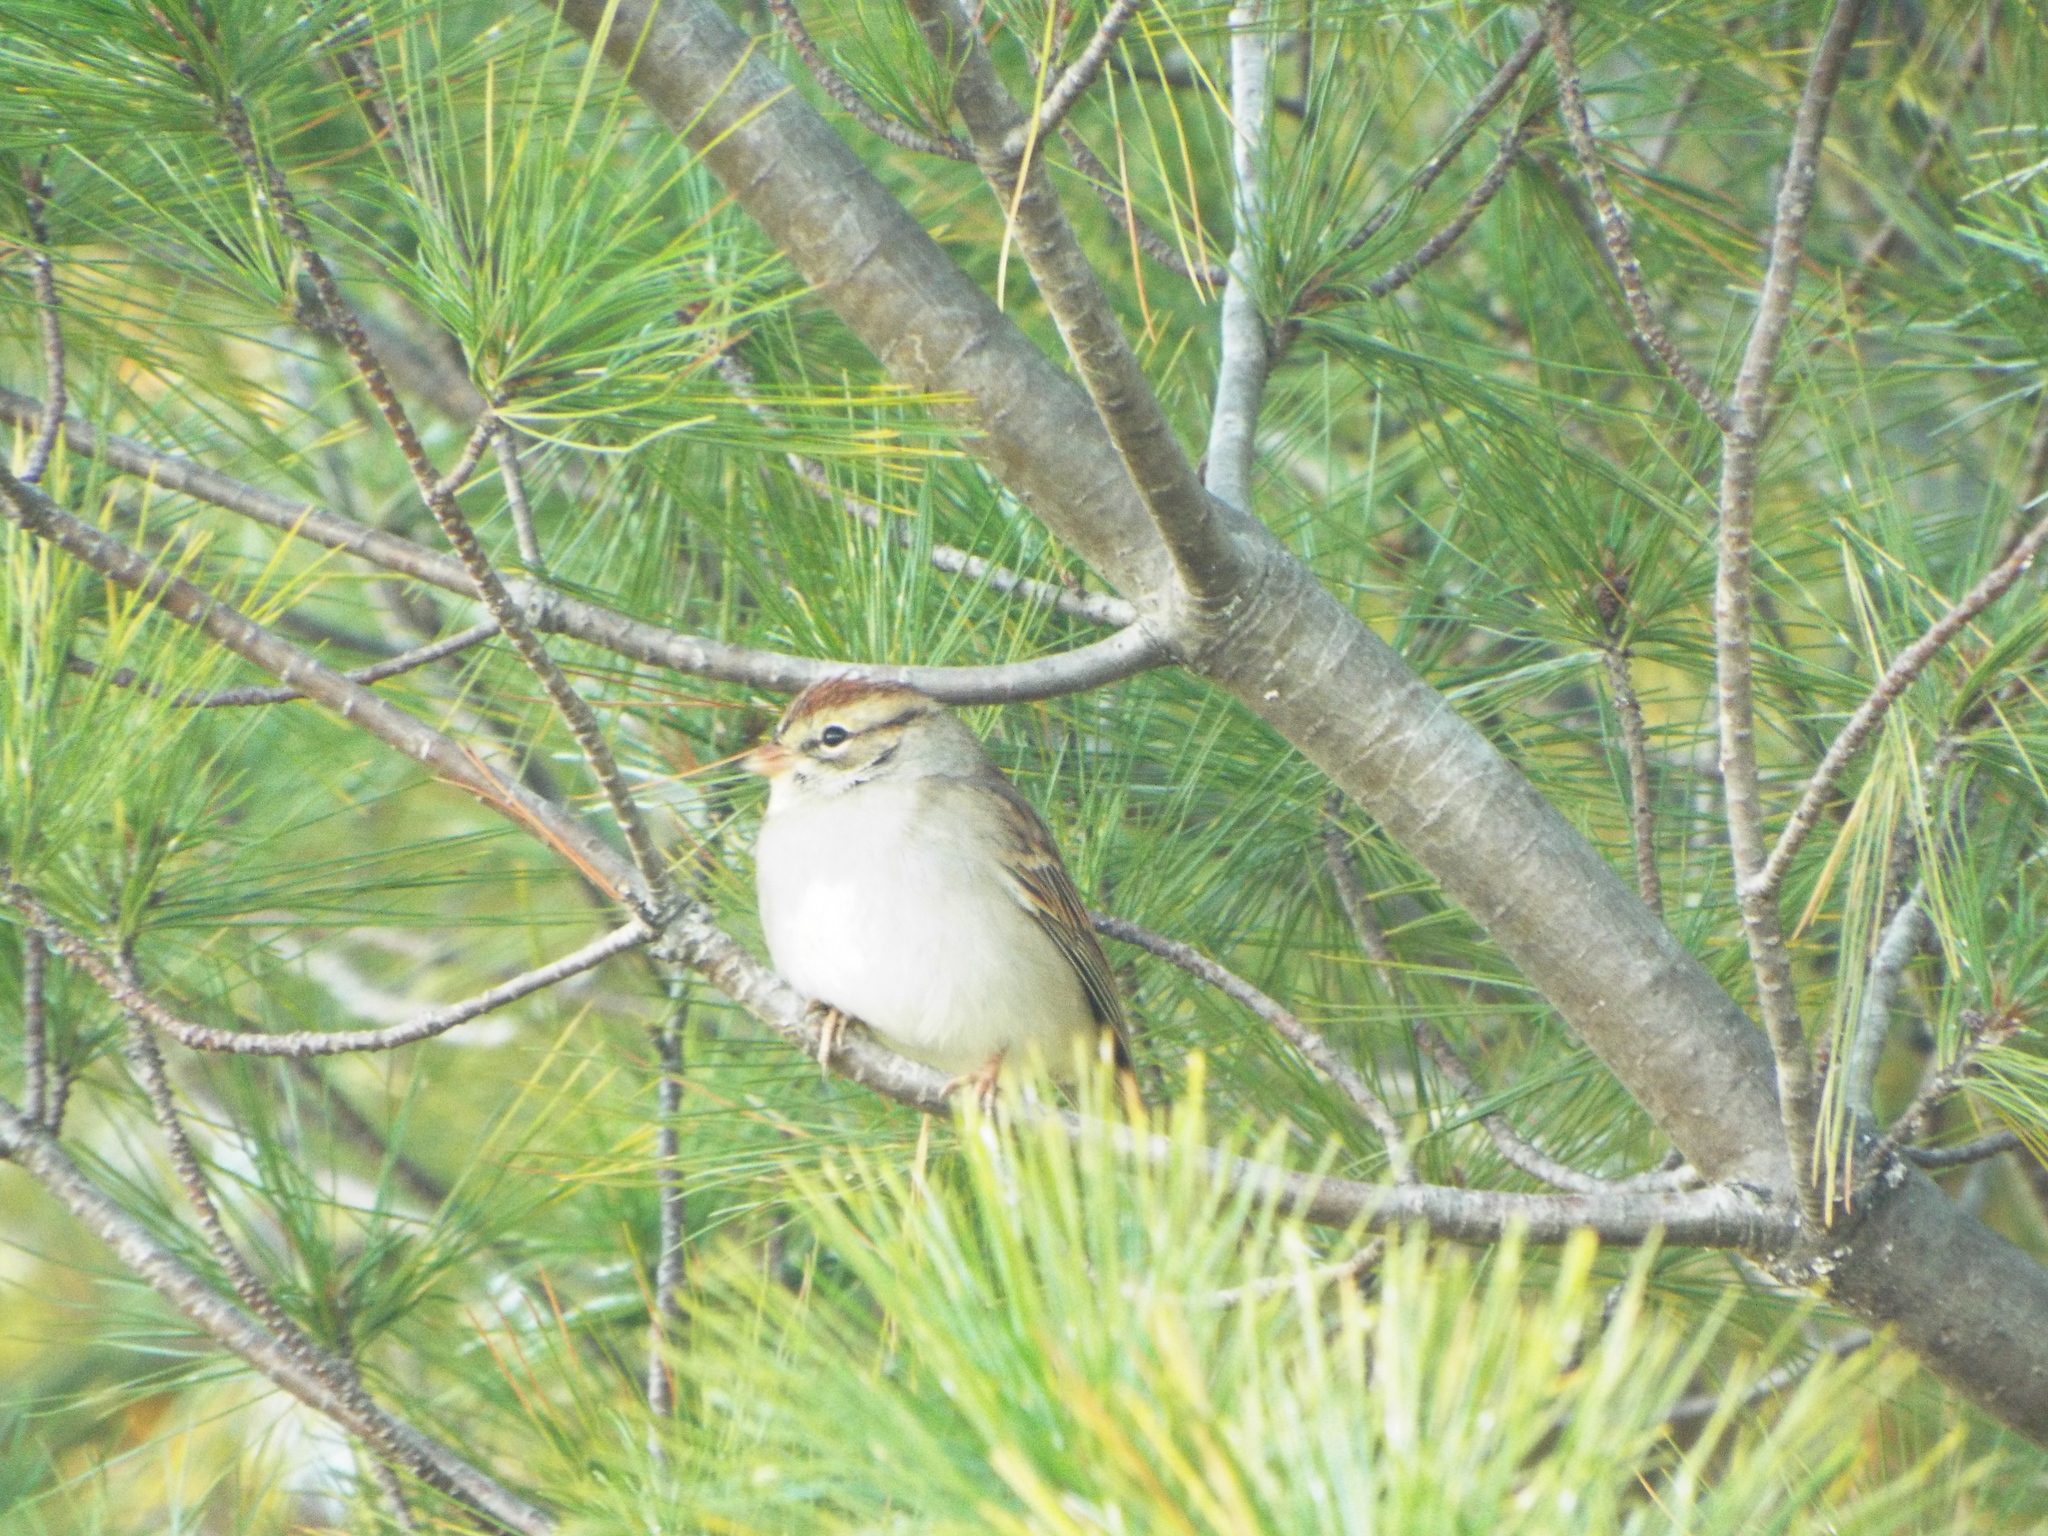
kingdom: Animalia
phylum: Chordata
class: Aves
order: Passeriformes
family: Passerellidae
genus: Spizella
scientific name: Spizella passerina
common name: Chipping sparrow
